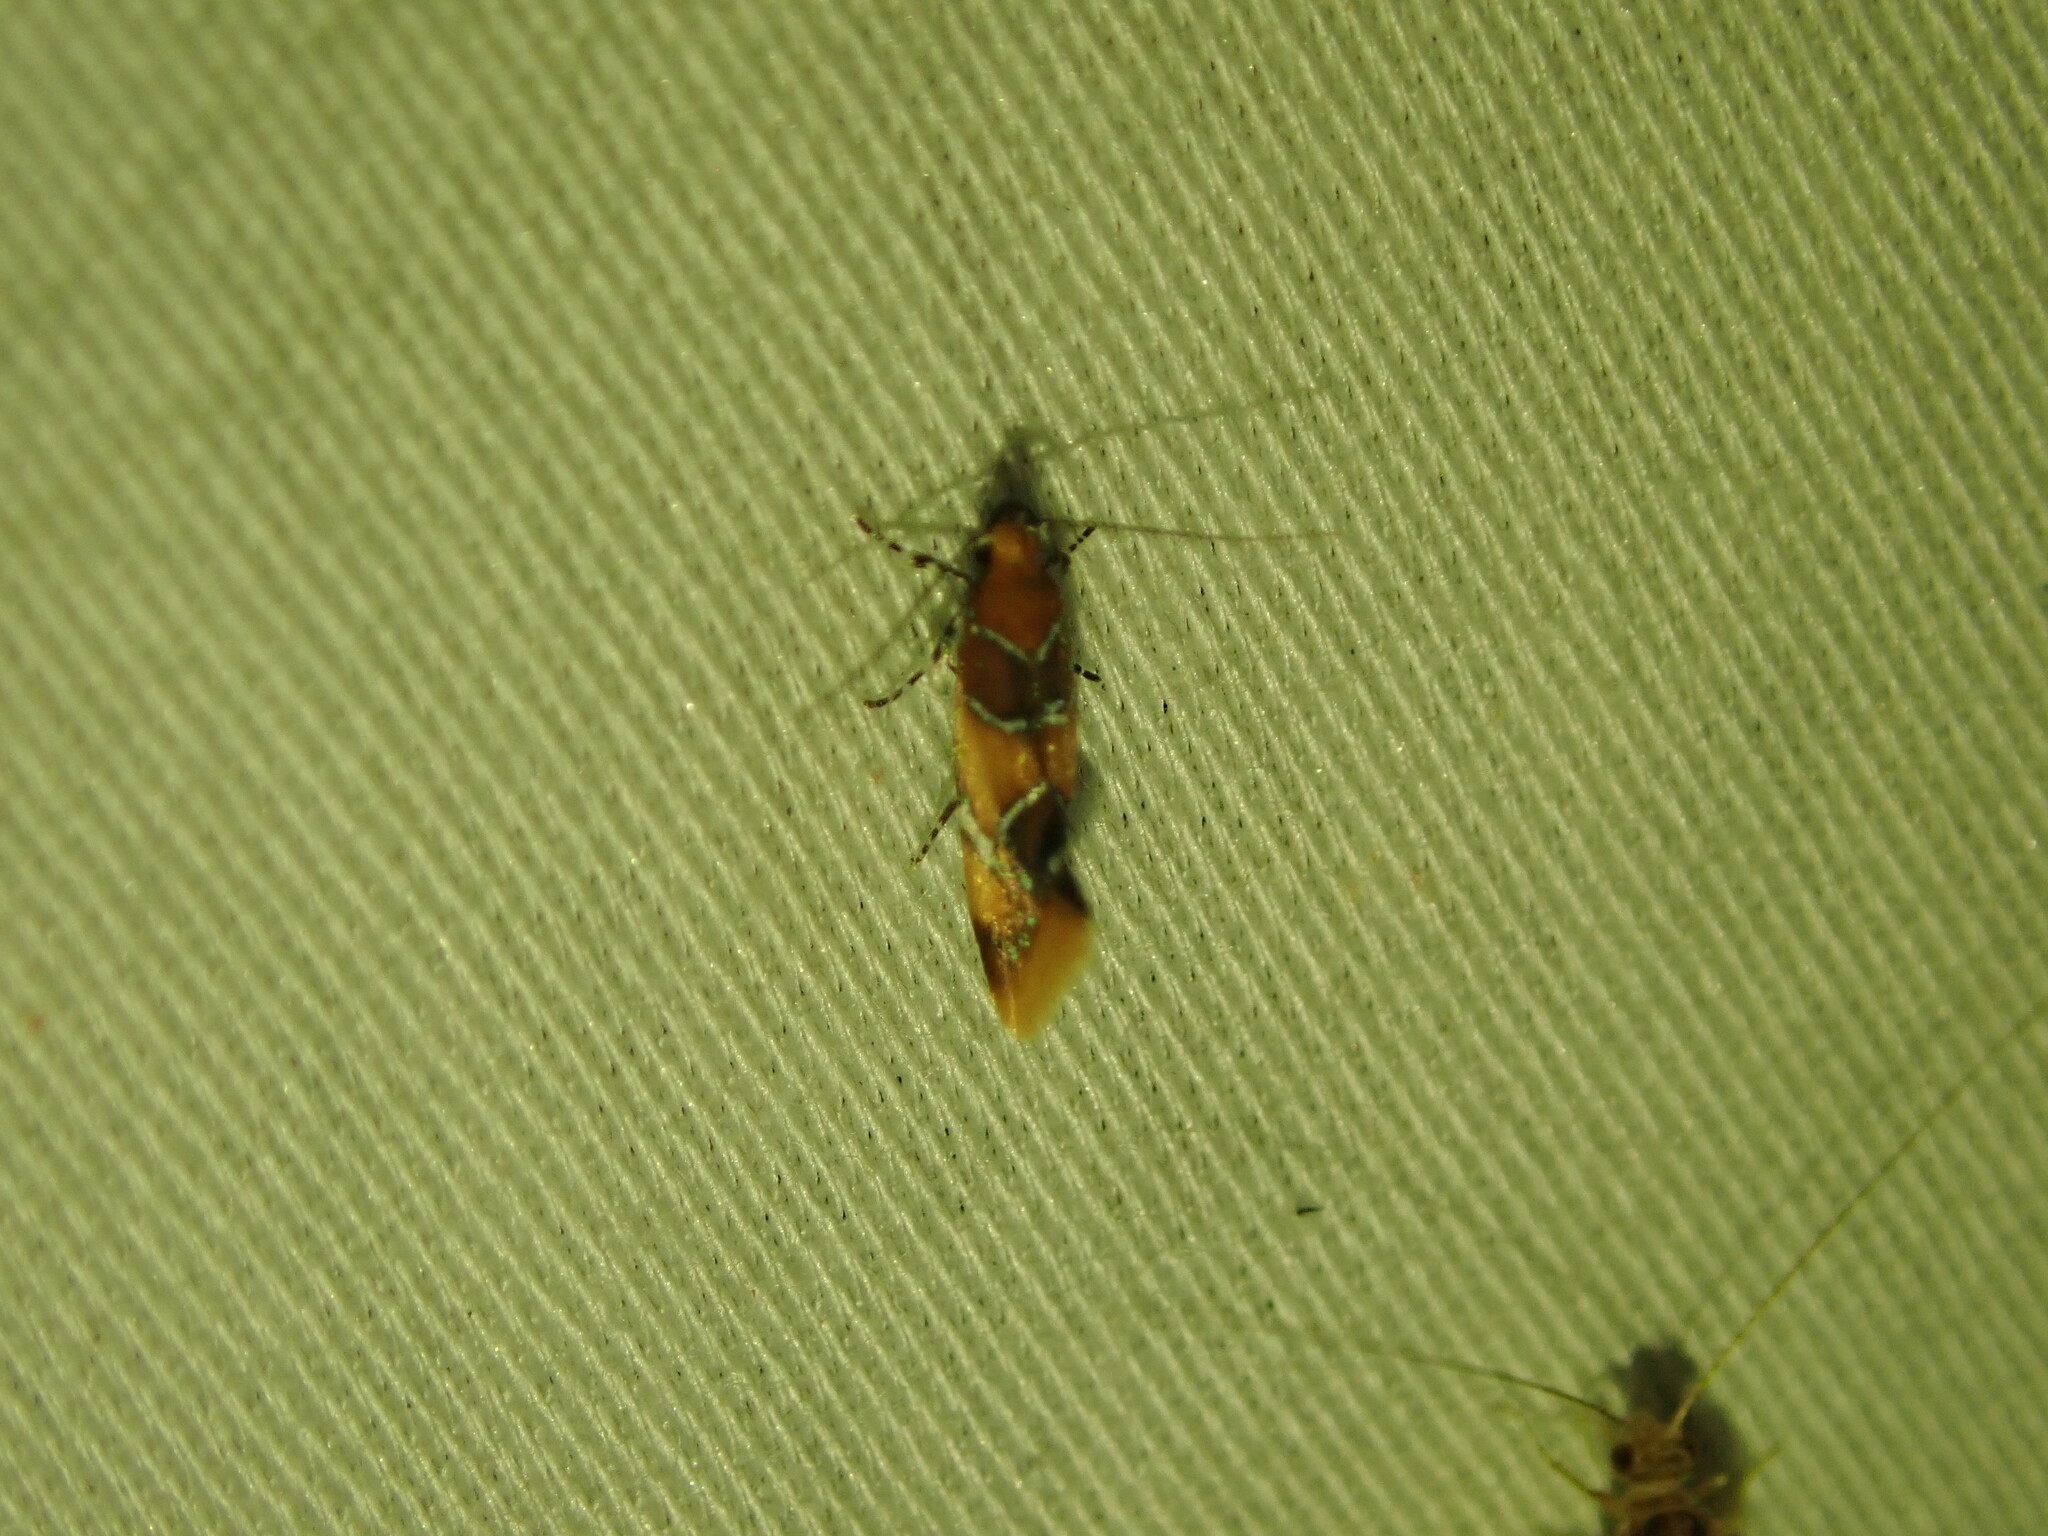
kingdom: Animalia
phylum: Arthropoda
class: Insecta
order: Lepidoptera
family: Oecophoridae
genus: Callima
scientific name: Callima argenticinctella
